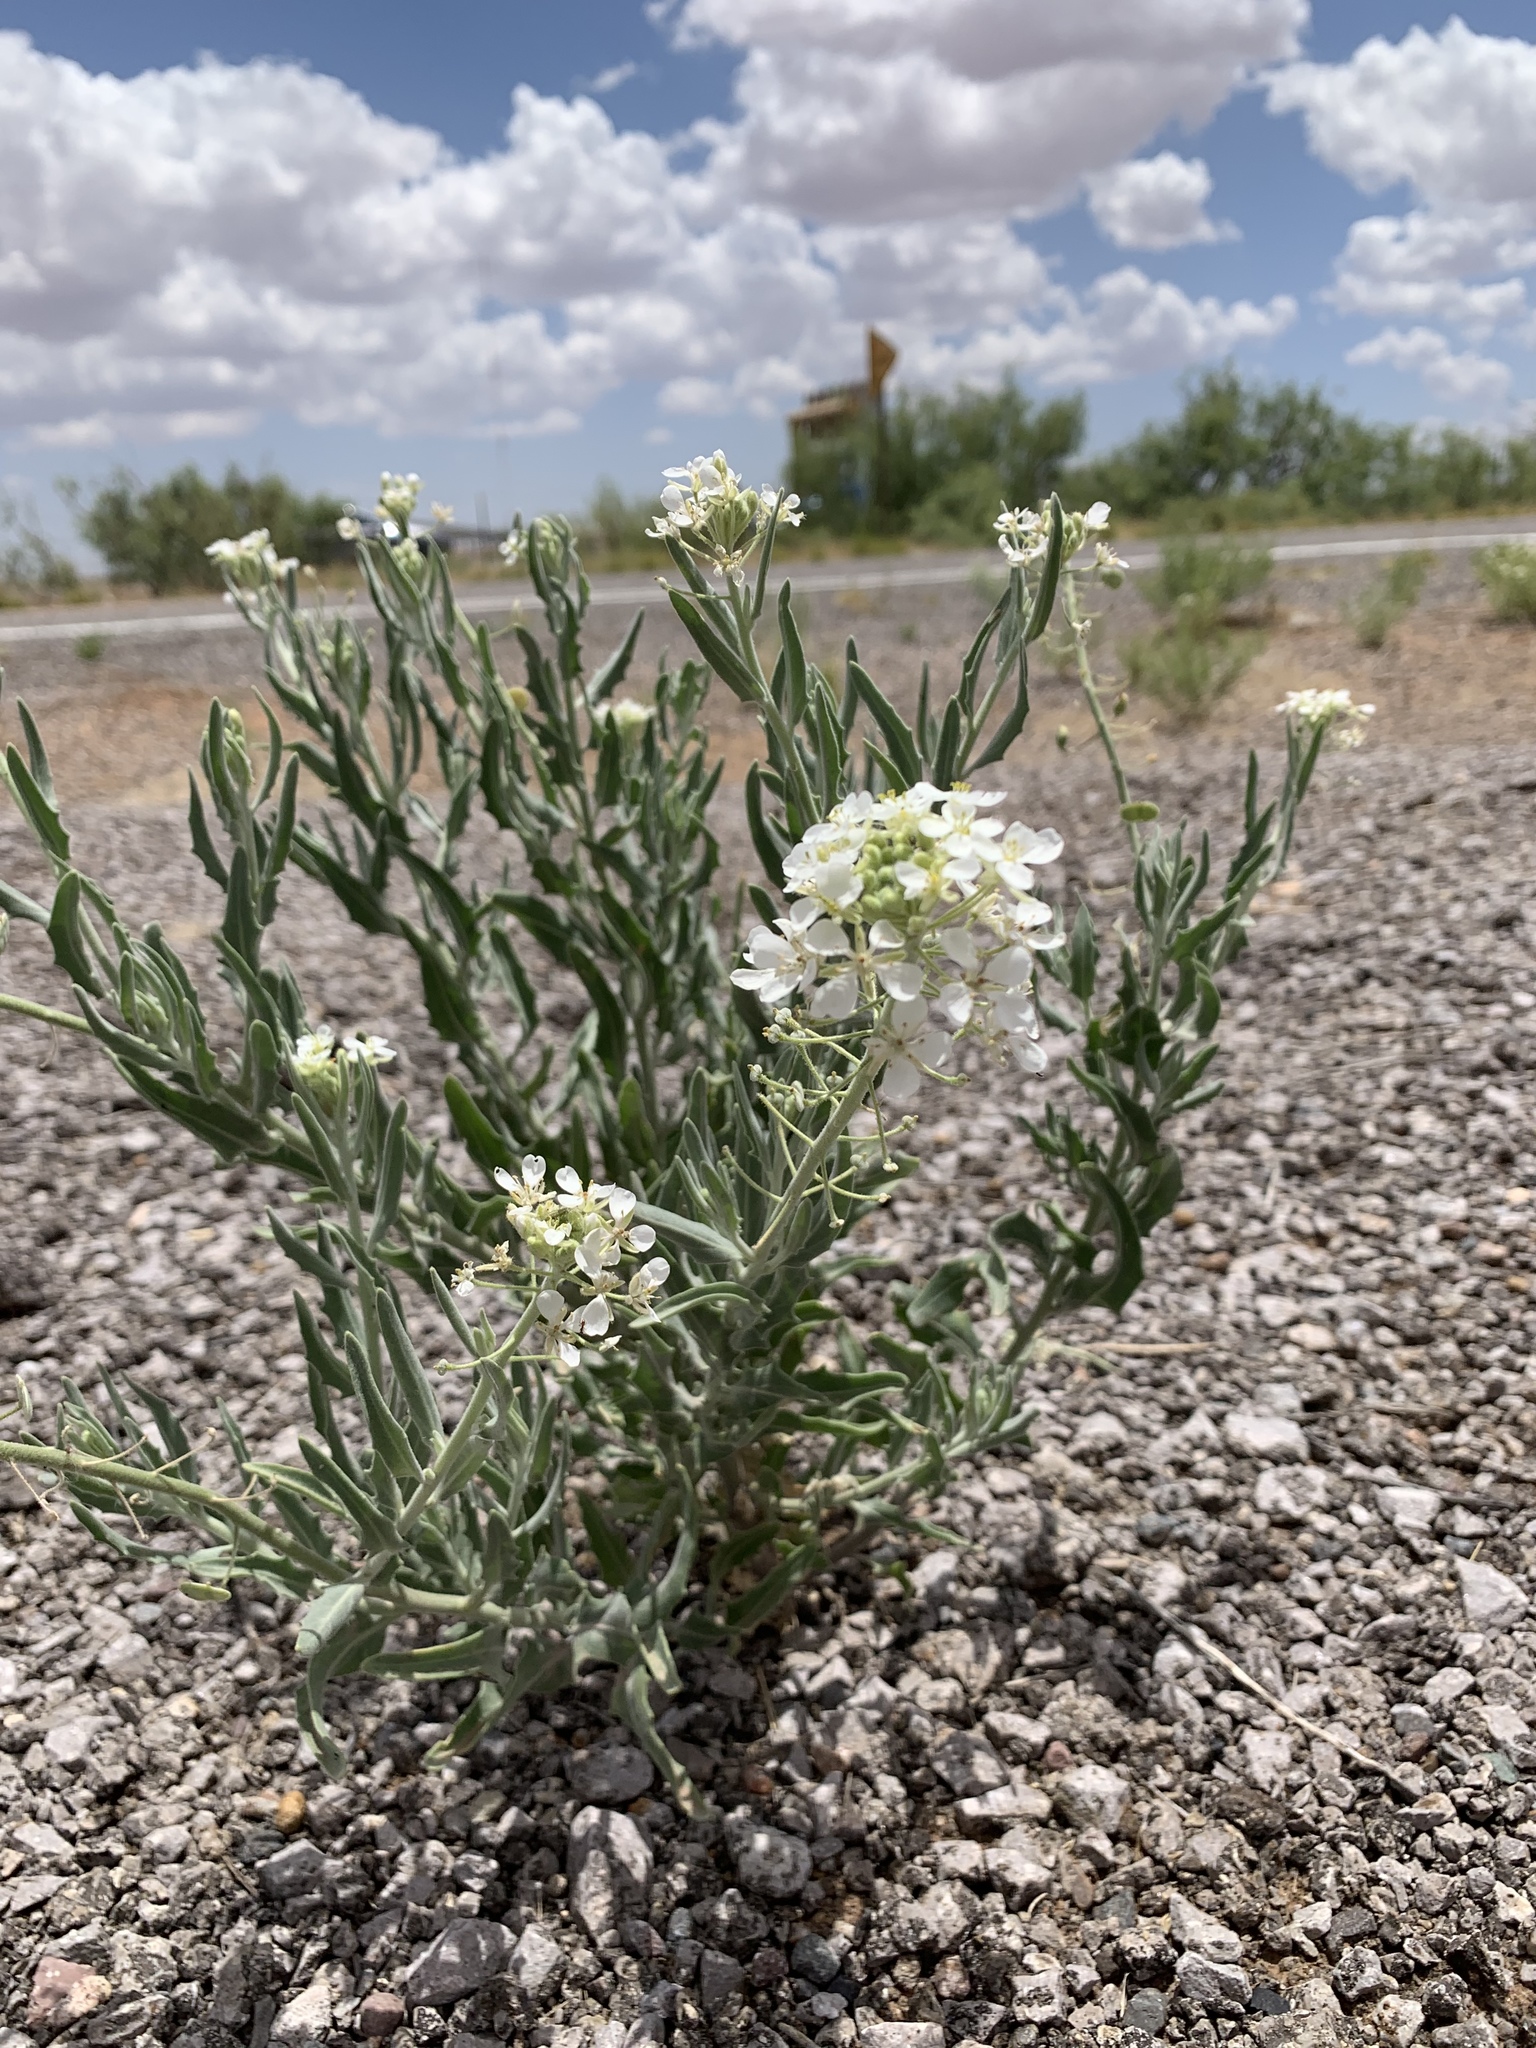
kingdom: Plantae
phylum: Tracheophyta
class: Magnoliopsida
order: Brassicales
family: Brassicaceae
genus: Dimorphocarpa
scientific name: Dimorphocarpa wislizenii
